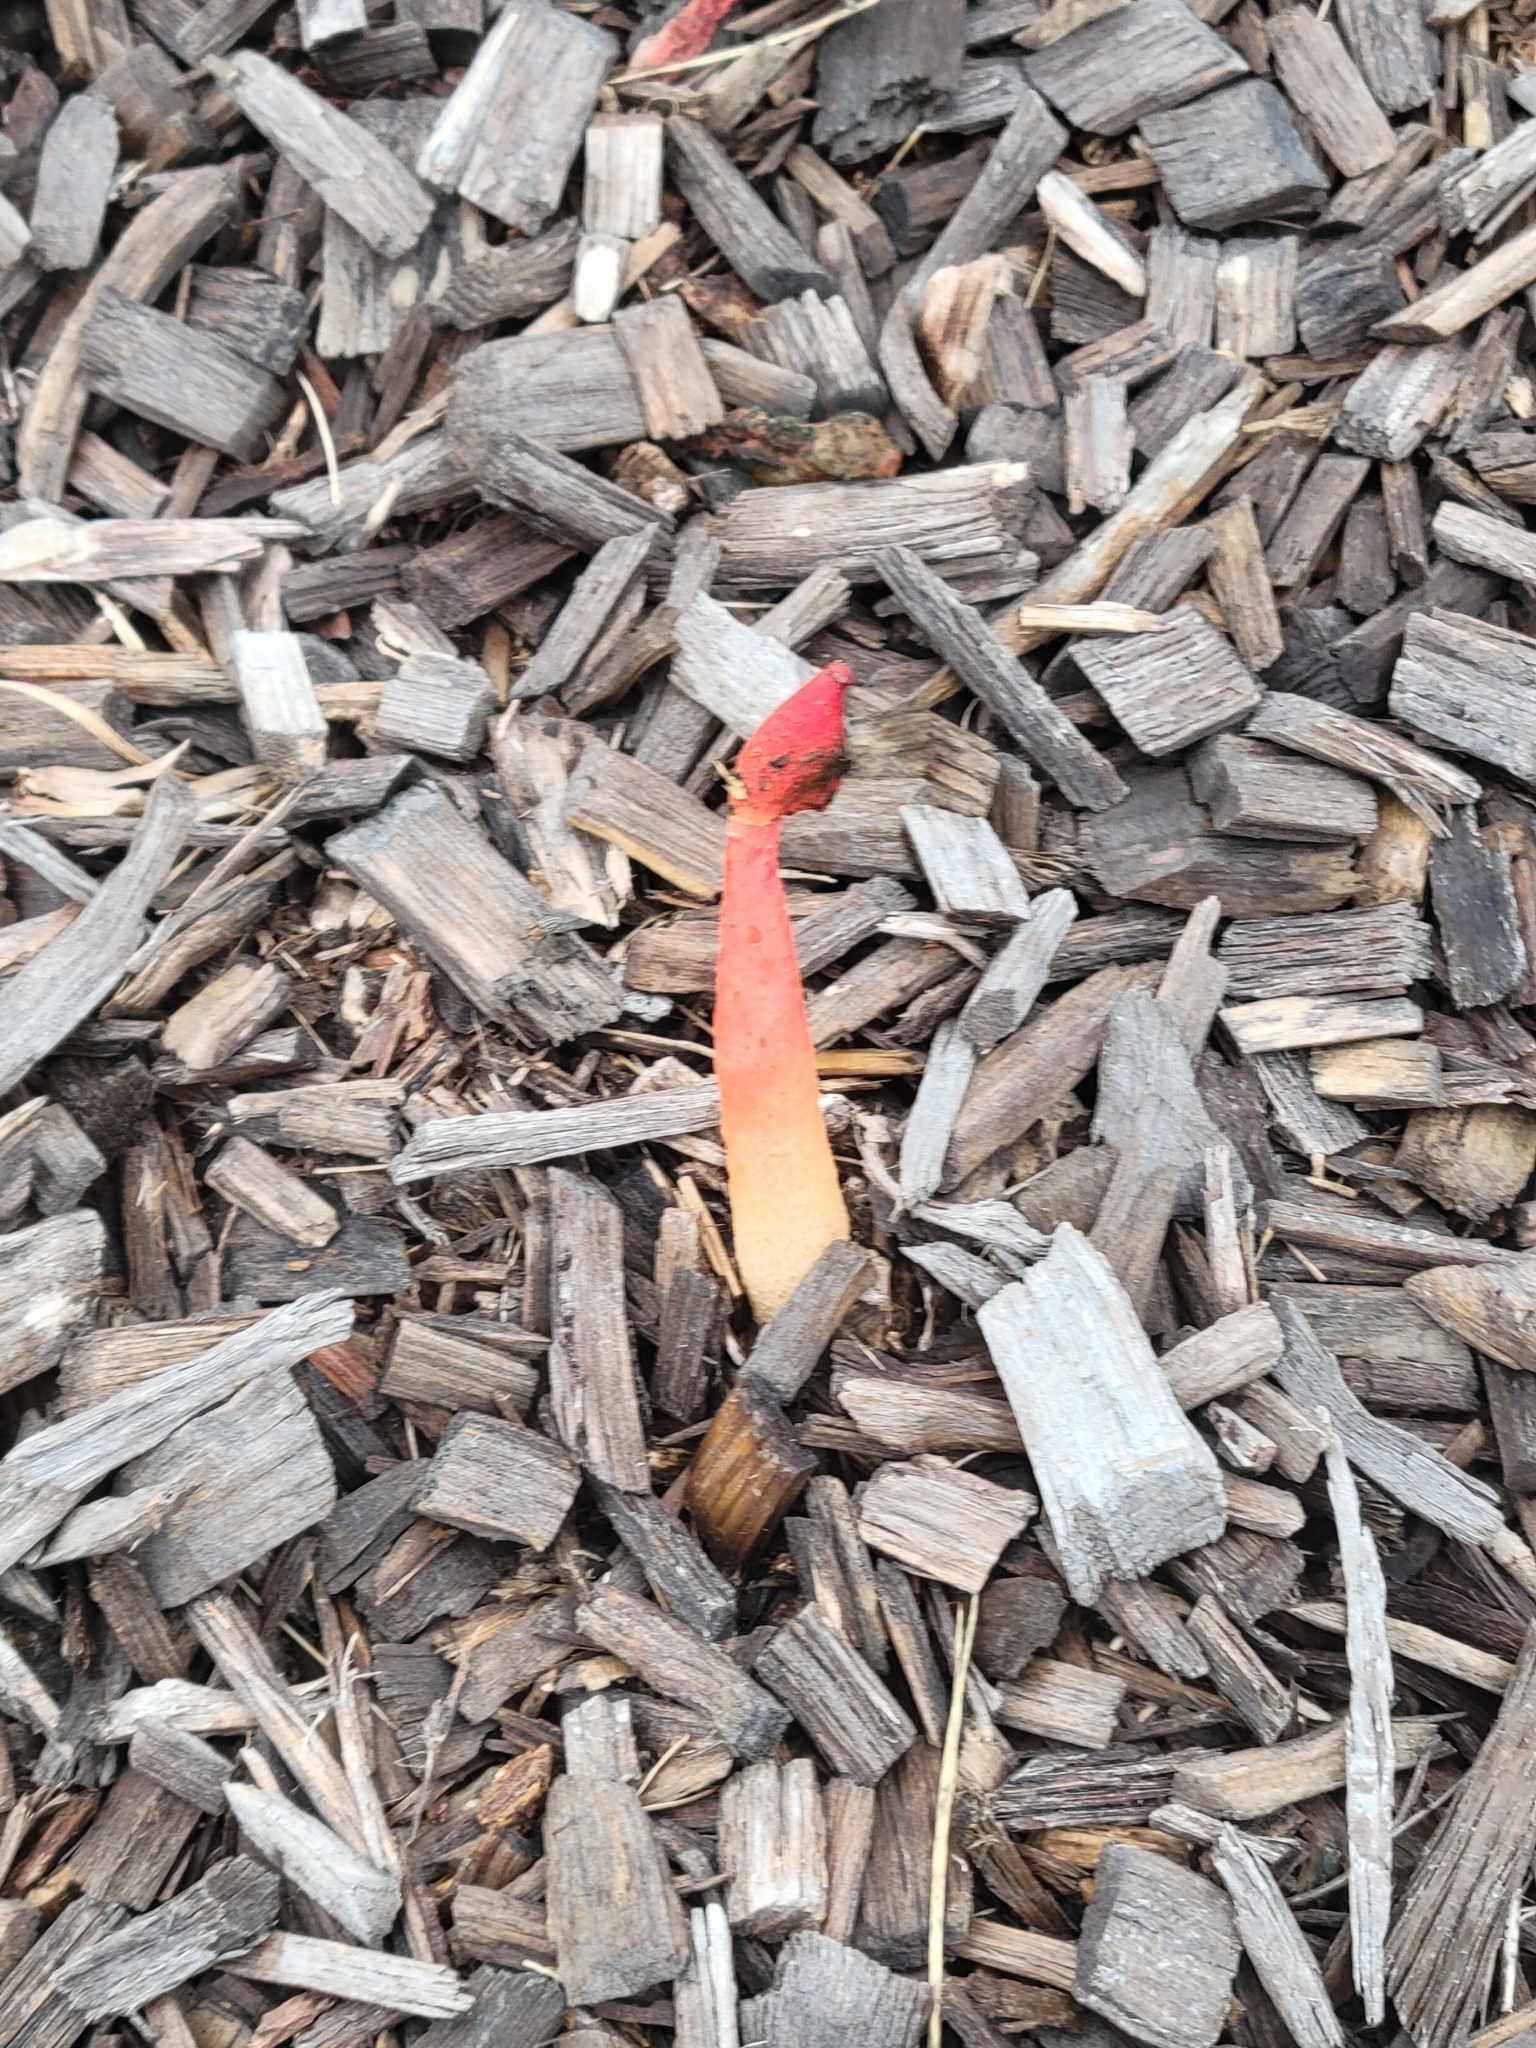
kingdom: Fungi
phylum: Basidiomycota
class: Agaricomycetes
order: Phallales
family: Phallaceae
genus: Phallus
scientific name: Phallus rugulosus
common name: Wrinkly stinkhorn
